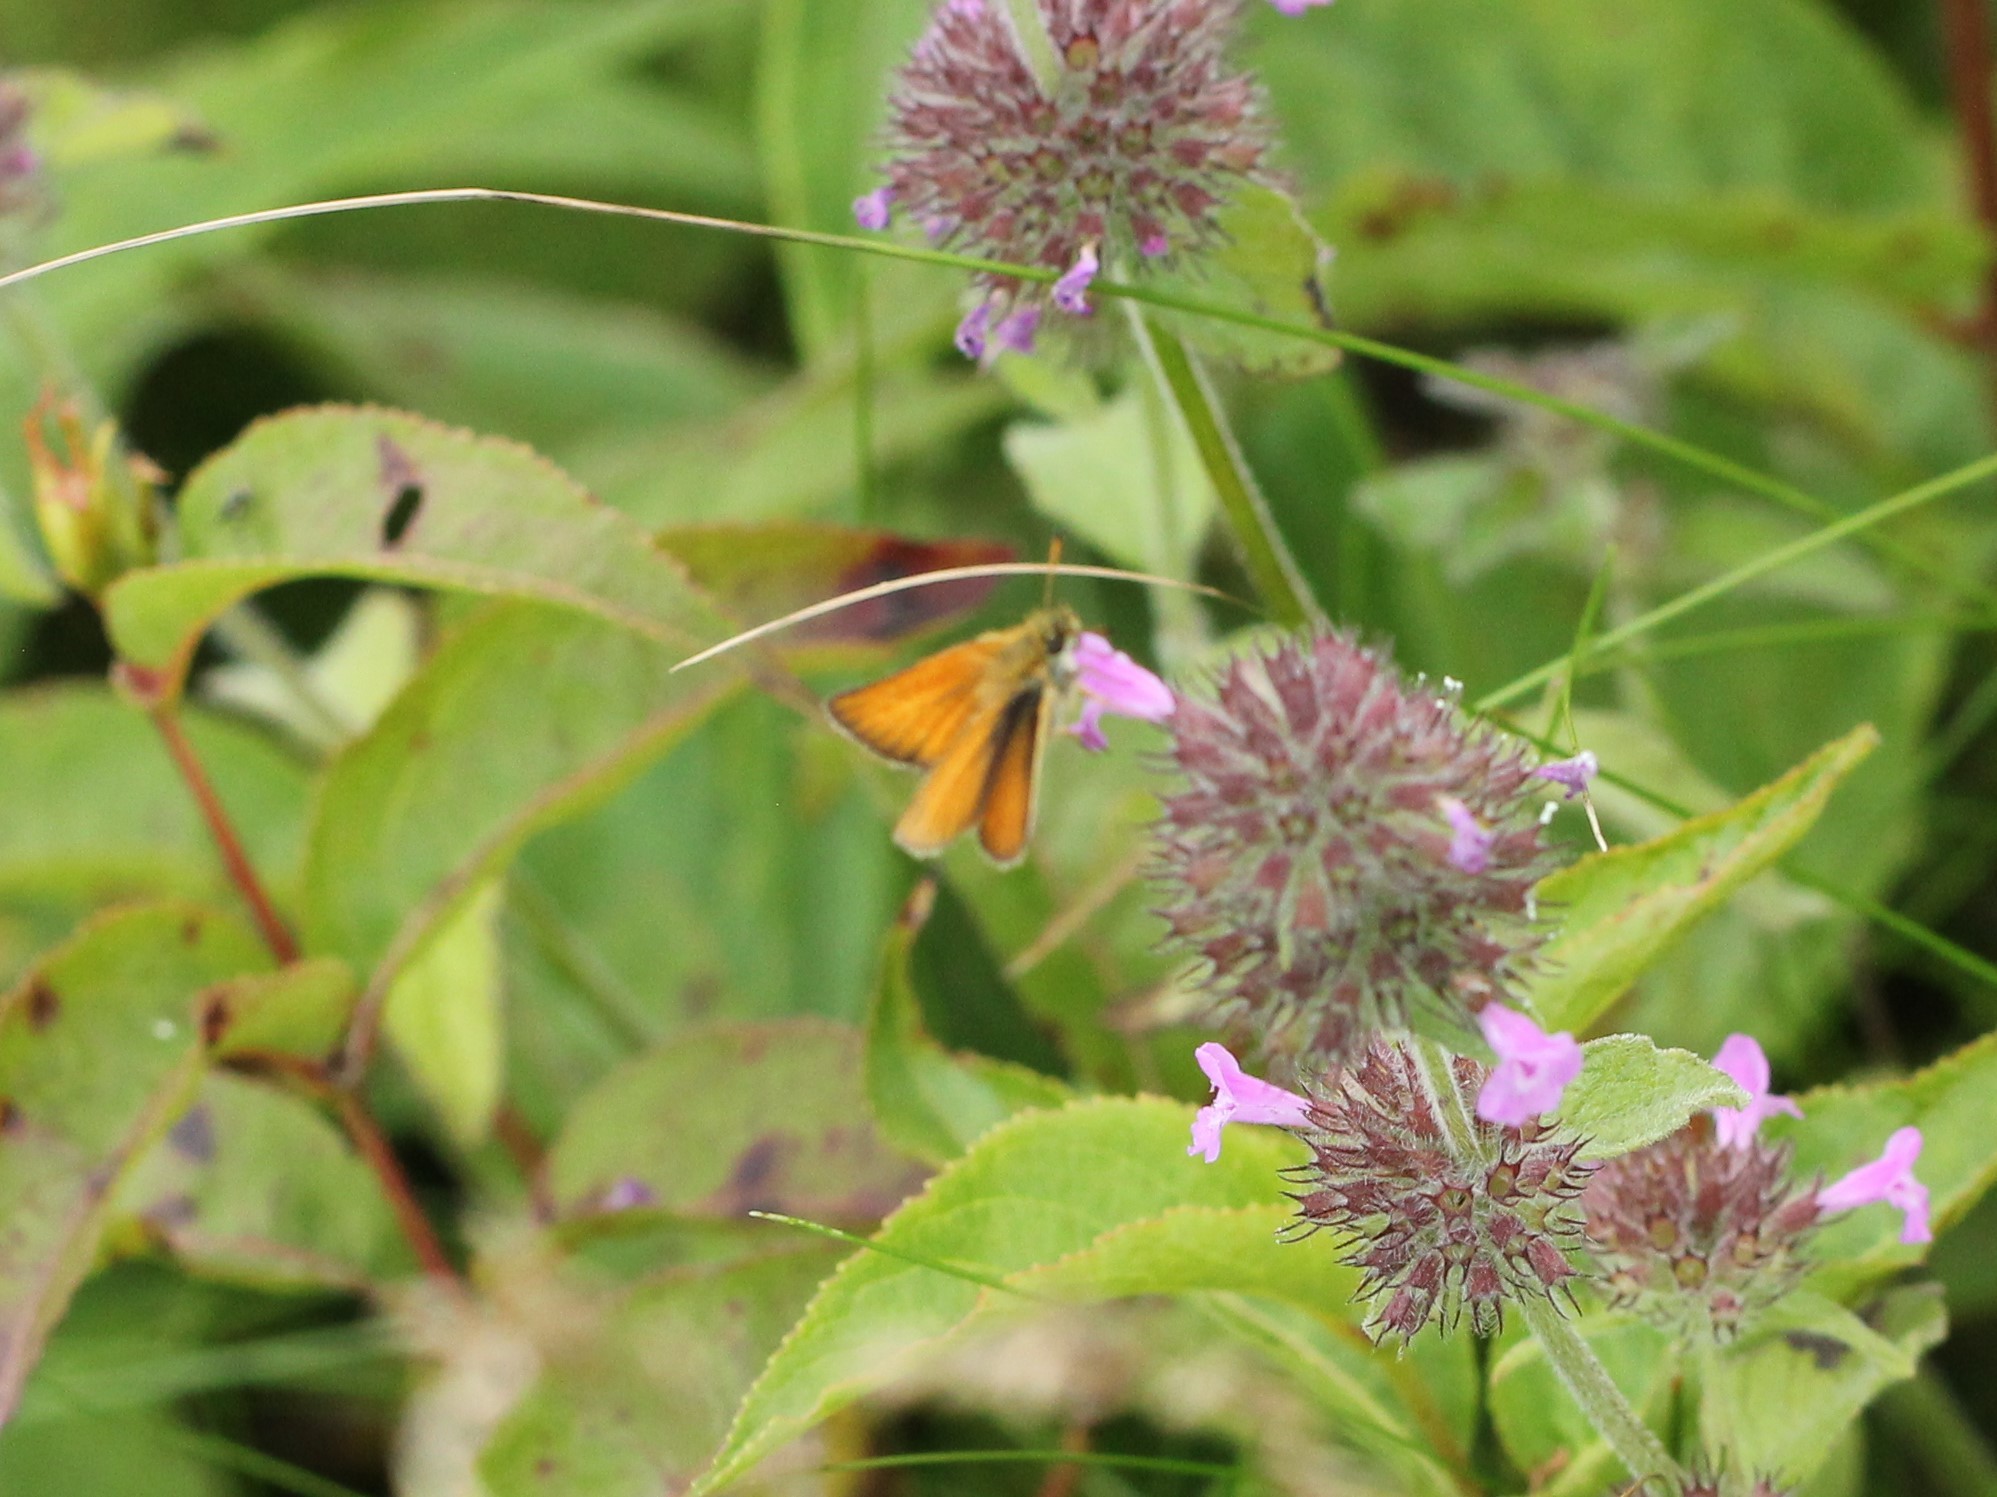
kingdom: Animalia
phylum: Arthropoda
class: Insecta
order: Lepidoptera
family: Hesperiidae
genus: Thymelicus
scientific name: Thymelicus lineola
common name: Essex skipper
